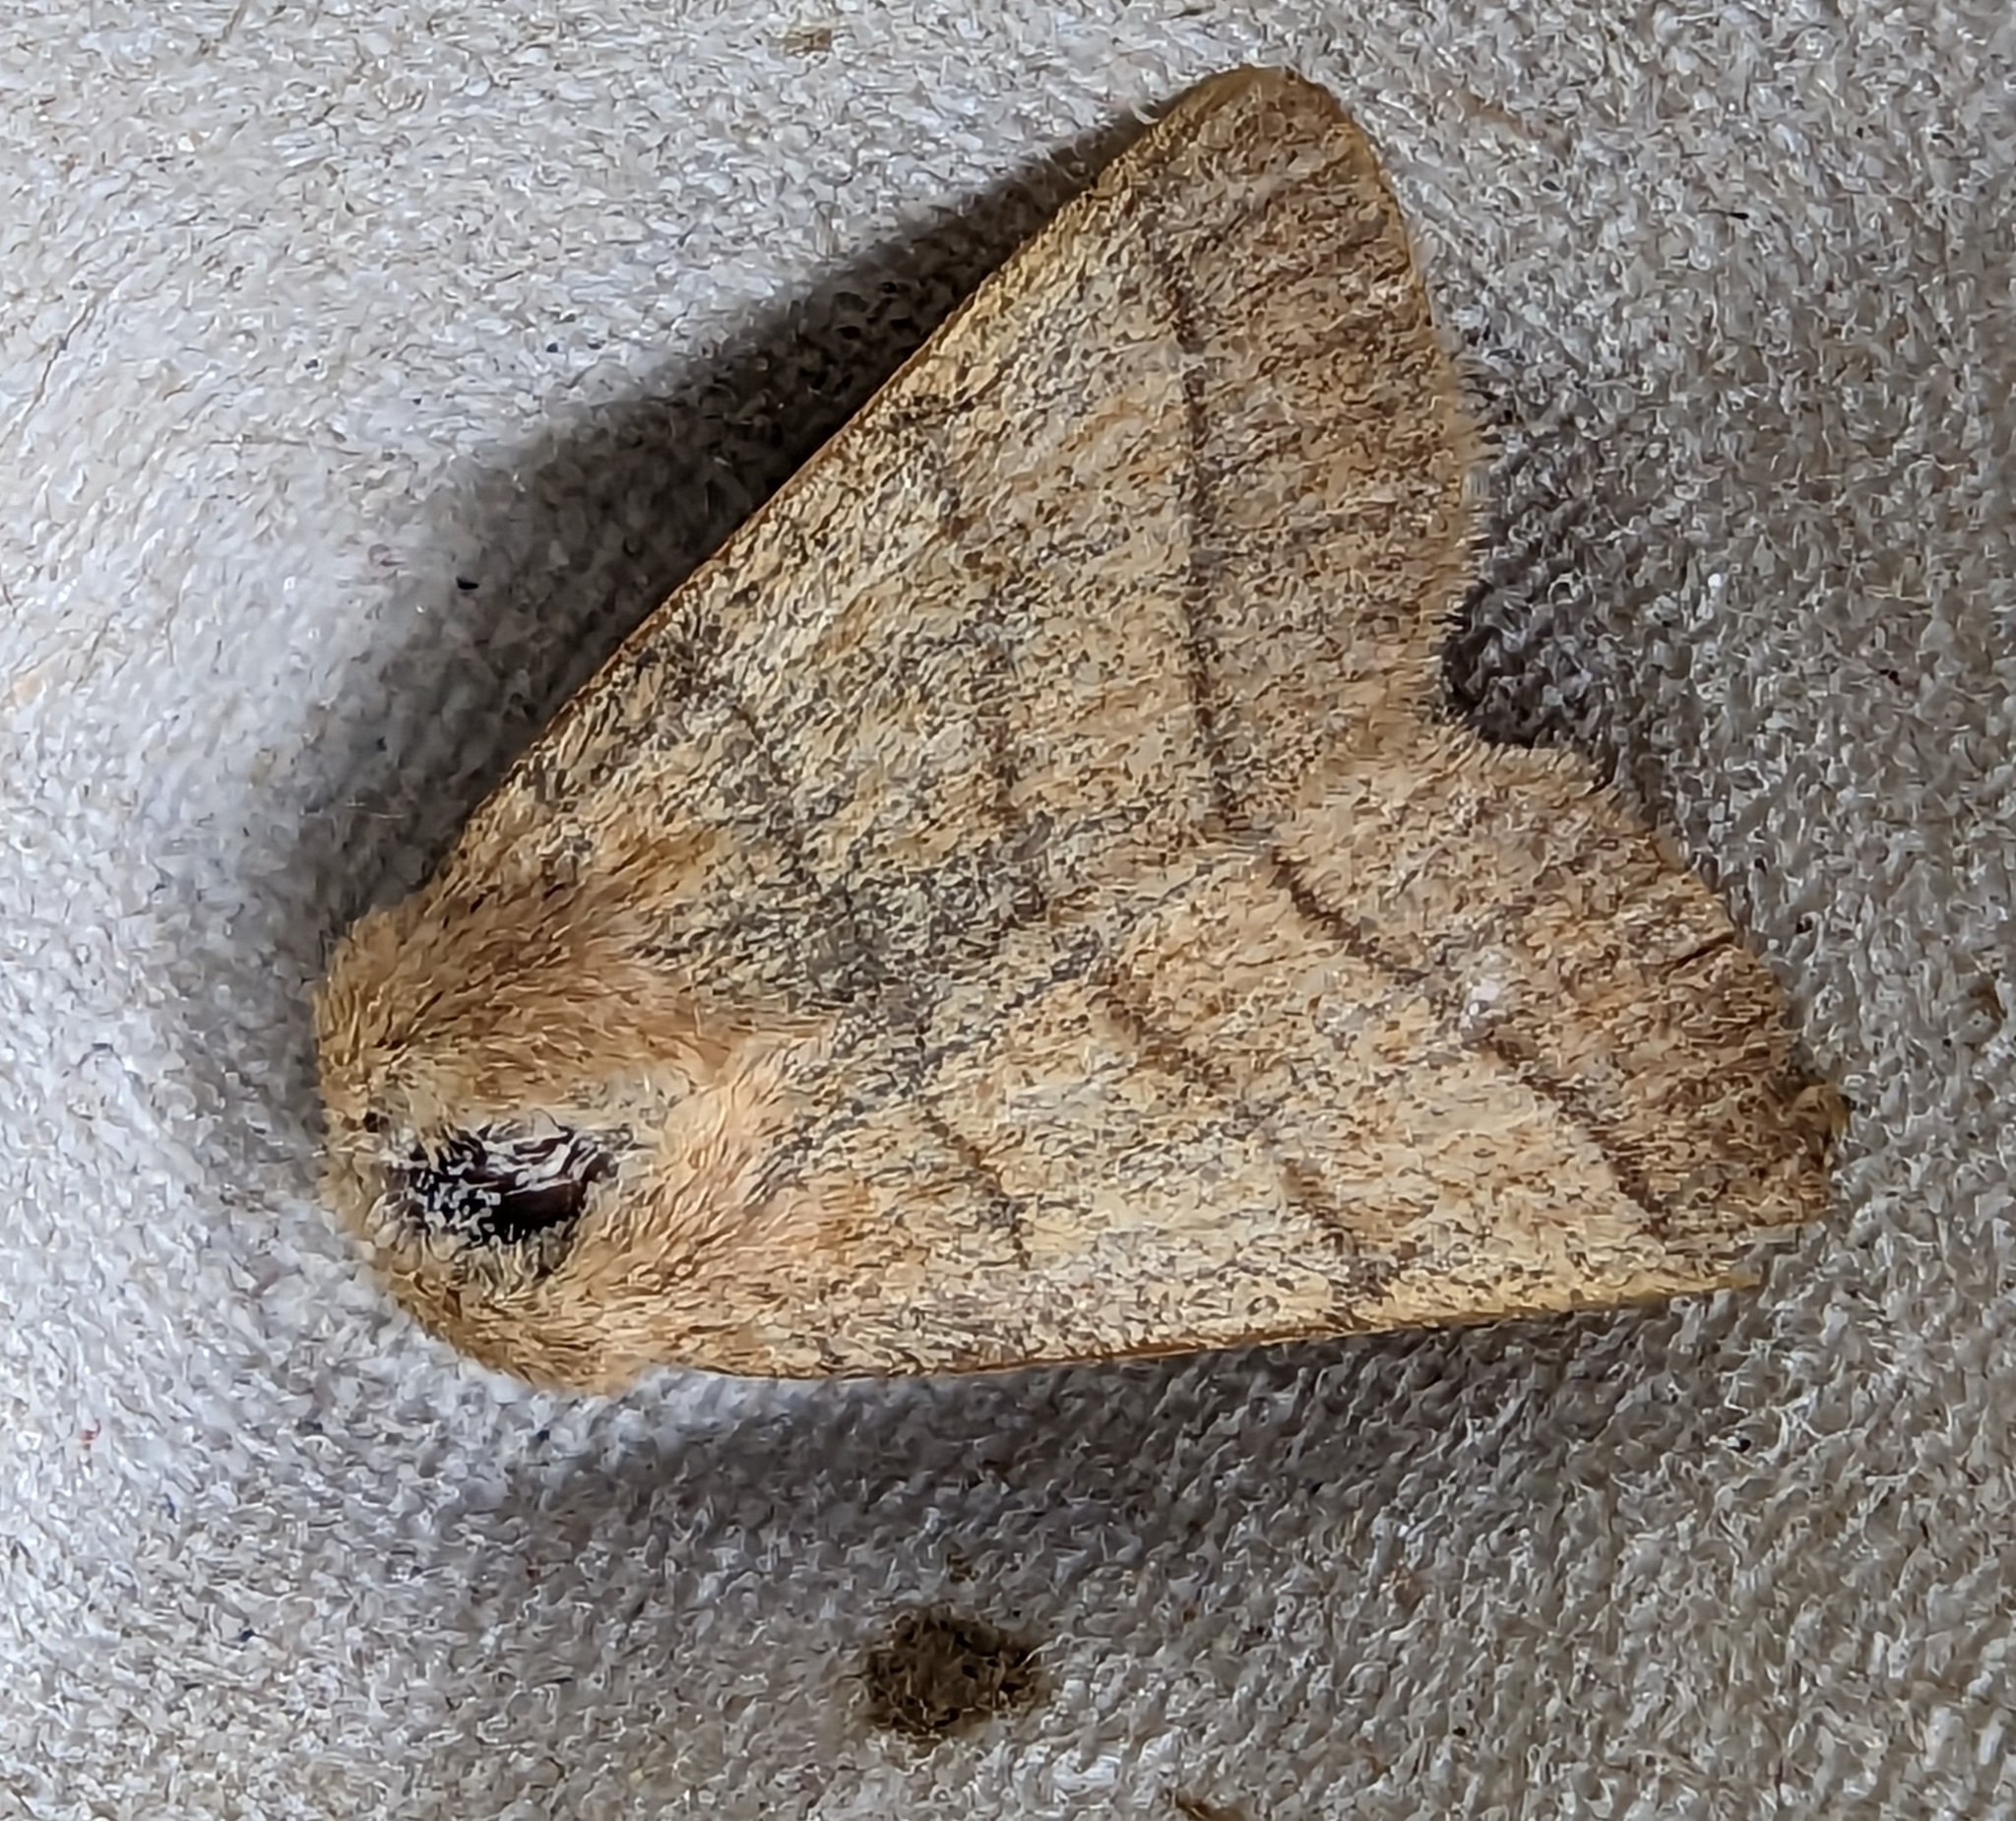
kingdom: Animalia
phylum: Arthropoda
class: Insecta
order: Lepidoptera
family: Noctuidae
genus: Charanyca
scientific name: Charanyca trigrammica
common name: Treble lines
